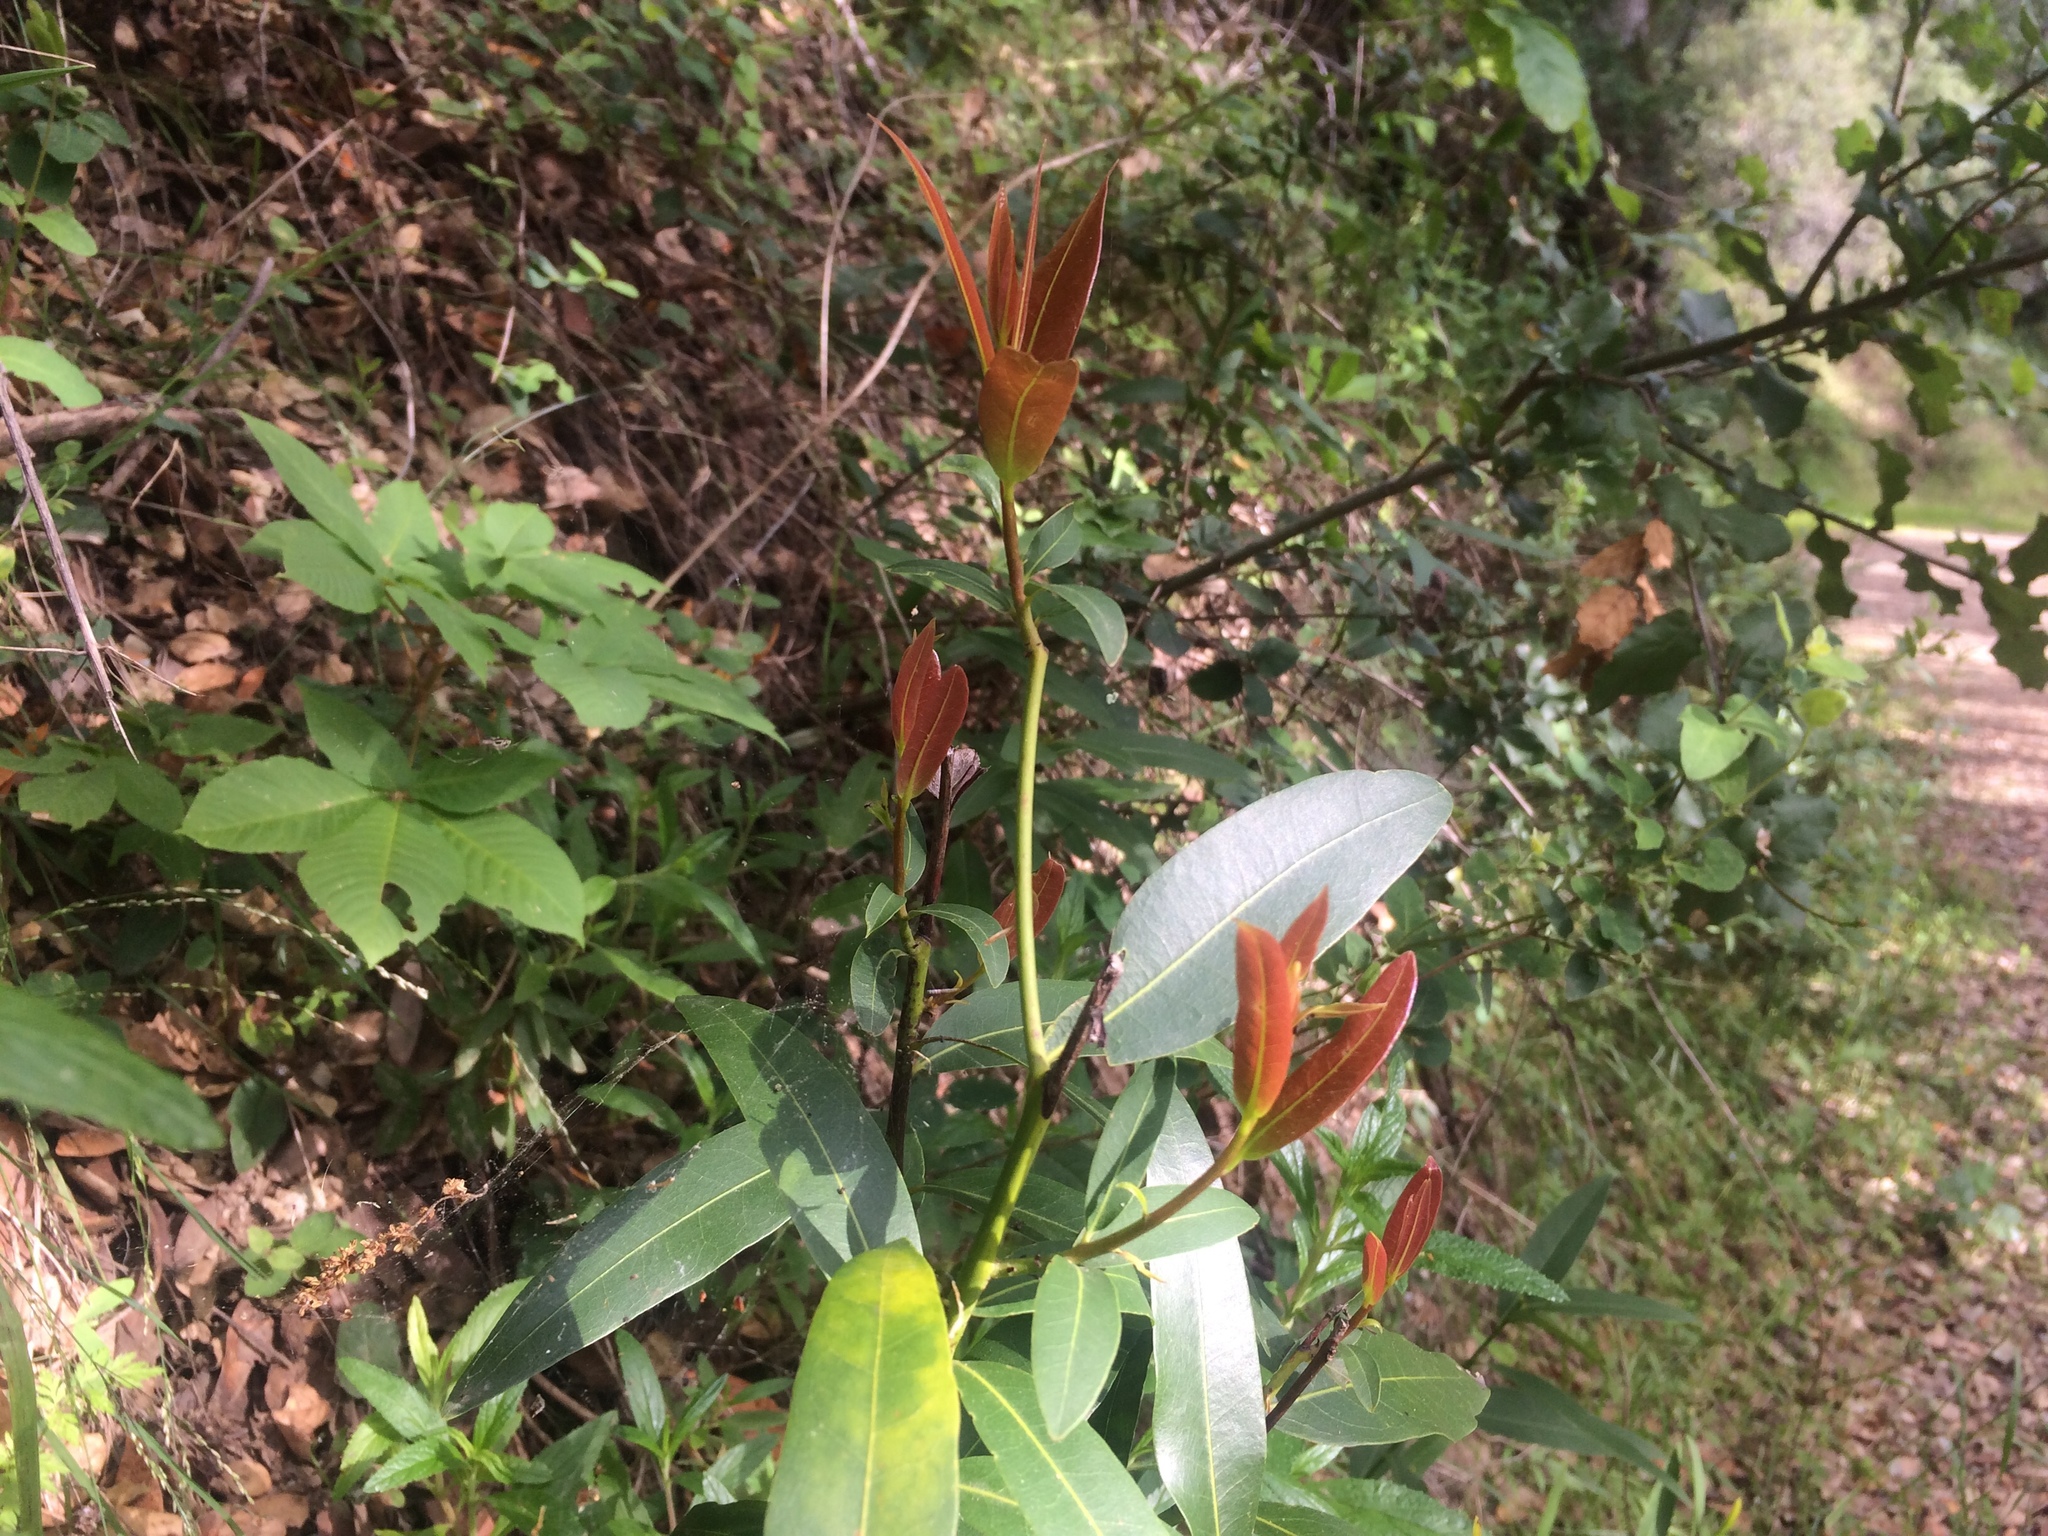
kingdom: Plantae
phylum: Tracheophyta
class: Magnoliopsida
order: Laurales
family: Lauraceae
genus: Umbellularia
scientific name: Umbellularia californica
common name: California bay
